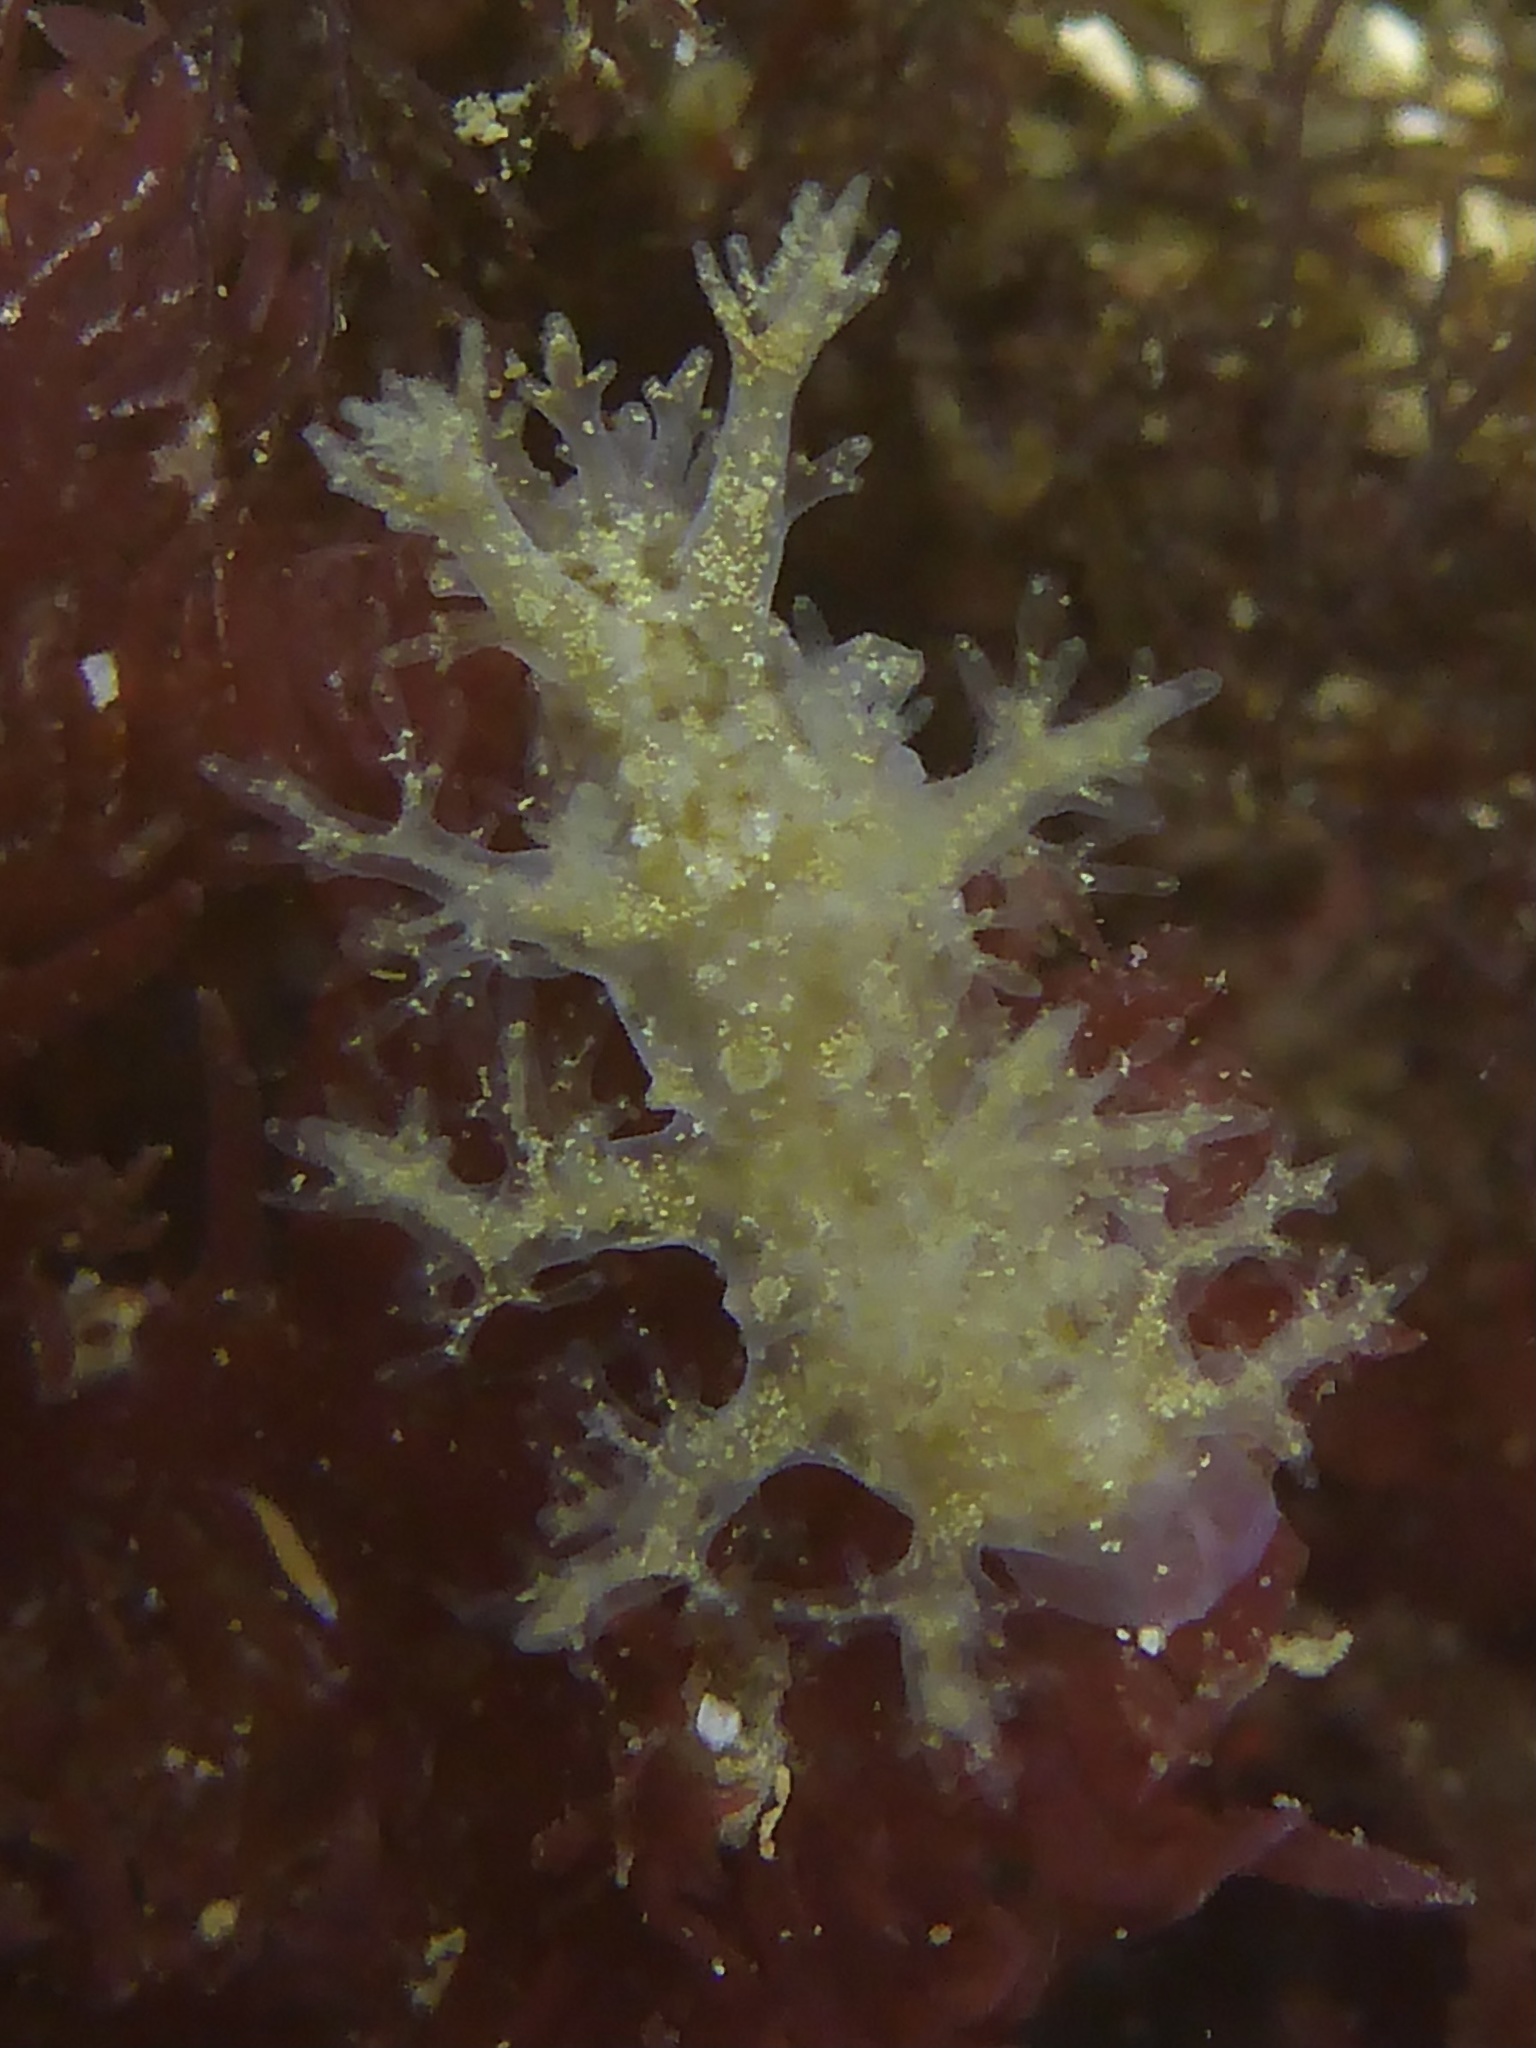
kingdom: Animalia
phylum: Mollusca
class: Gastropoda
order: Nudibranchia
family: Dendronotidae
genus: Dendronotus
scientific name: Dendronotus venustus
